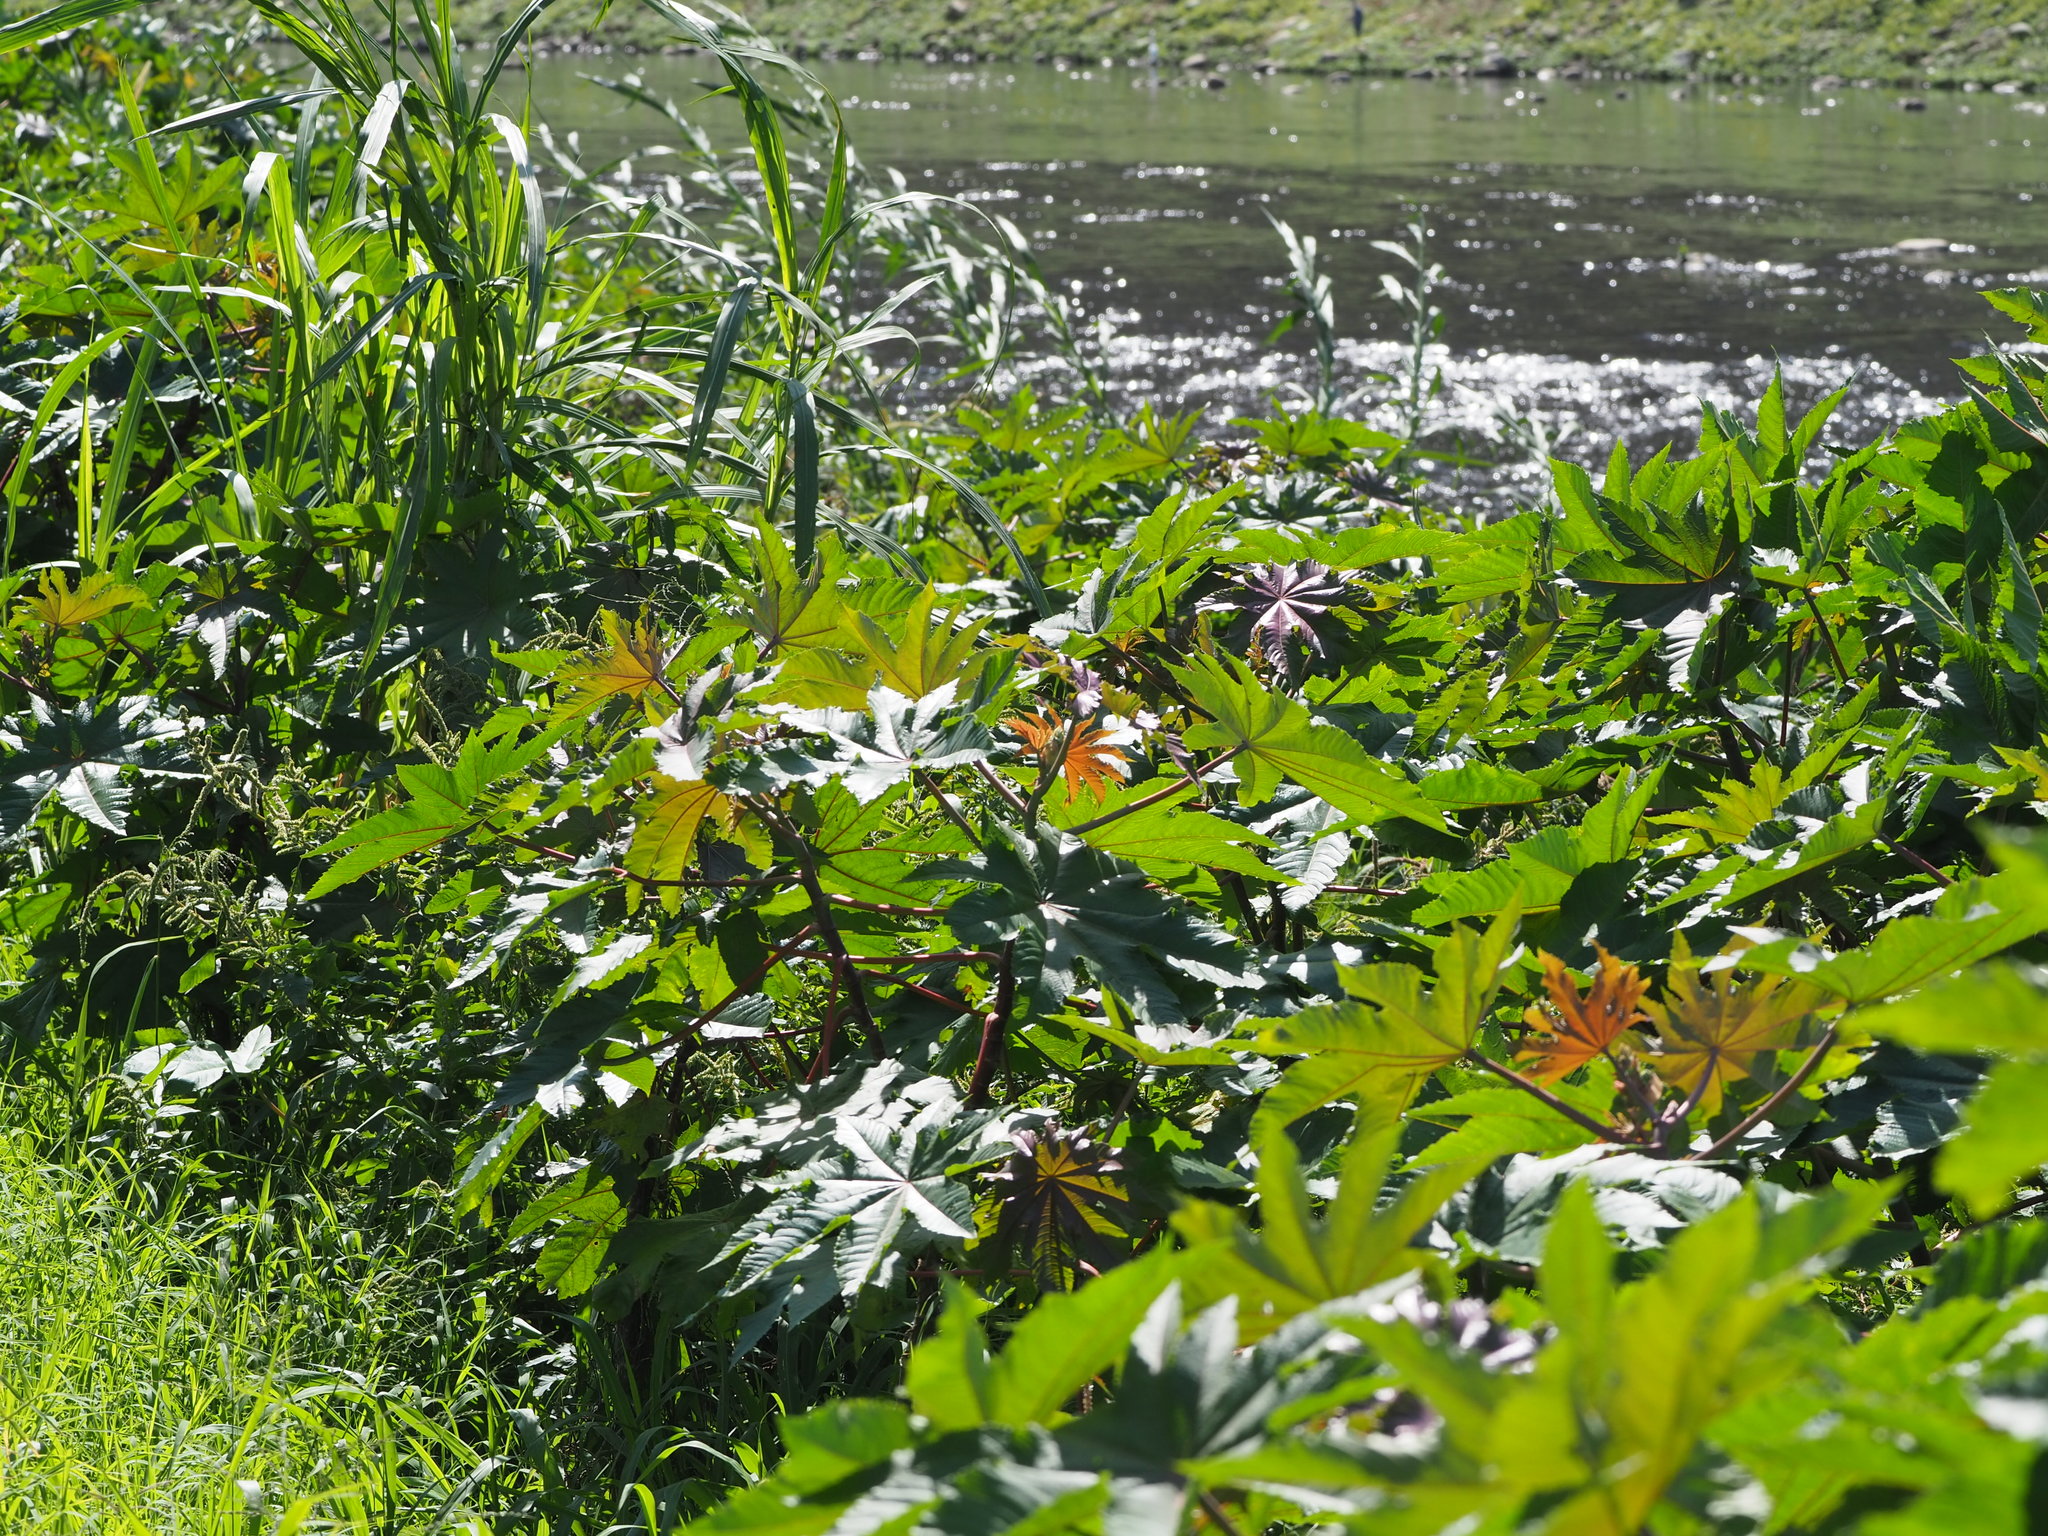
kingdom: Plantae
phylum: Tracheophyta
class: Magnoliopsida
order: Malpighiales
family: Euphorbiaceae
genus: Ricinus
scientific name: Ricinus communis
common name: Castor-oil-plant
